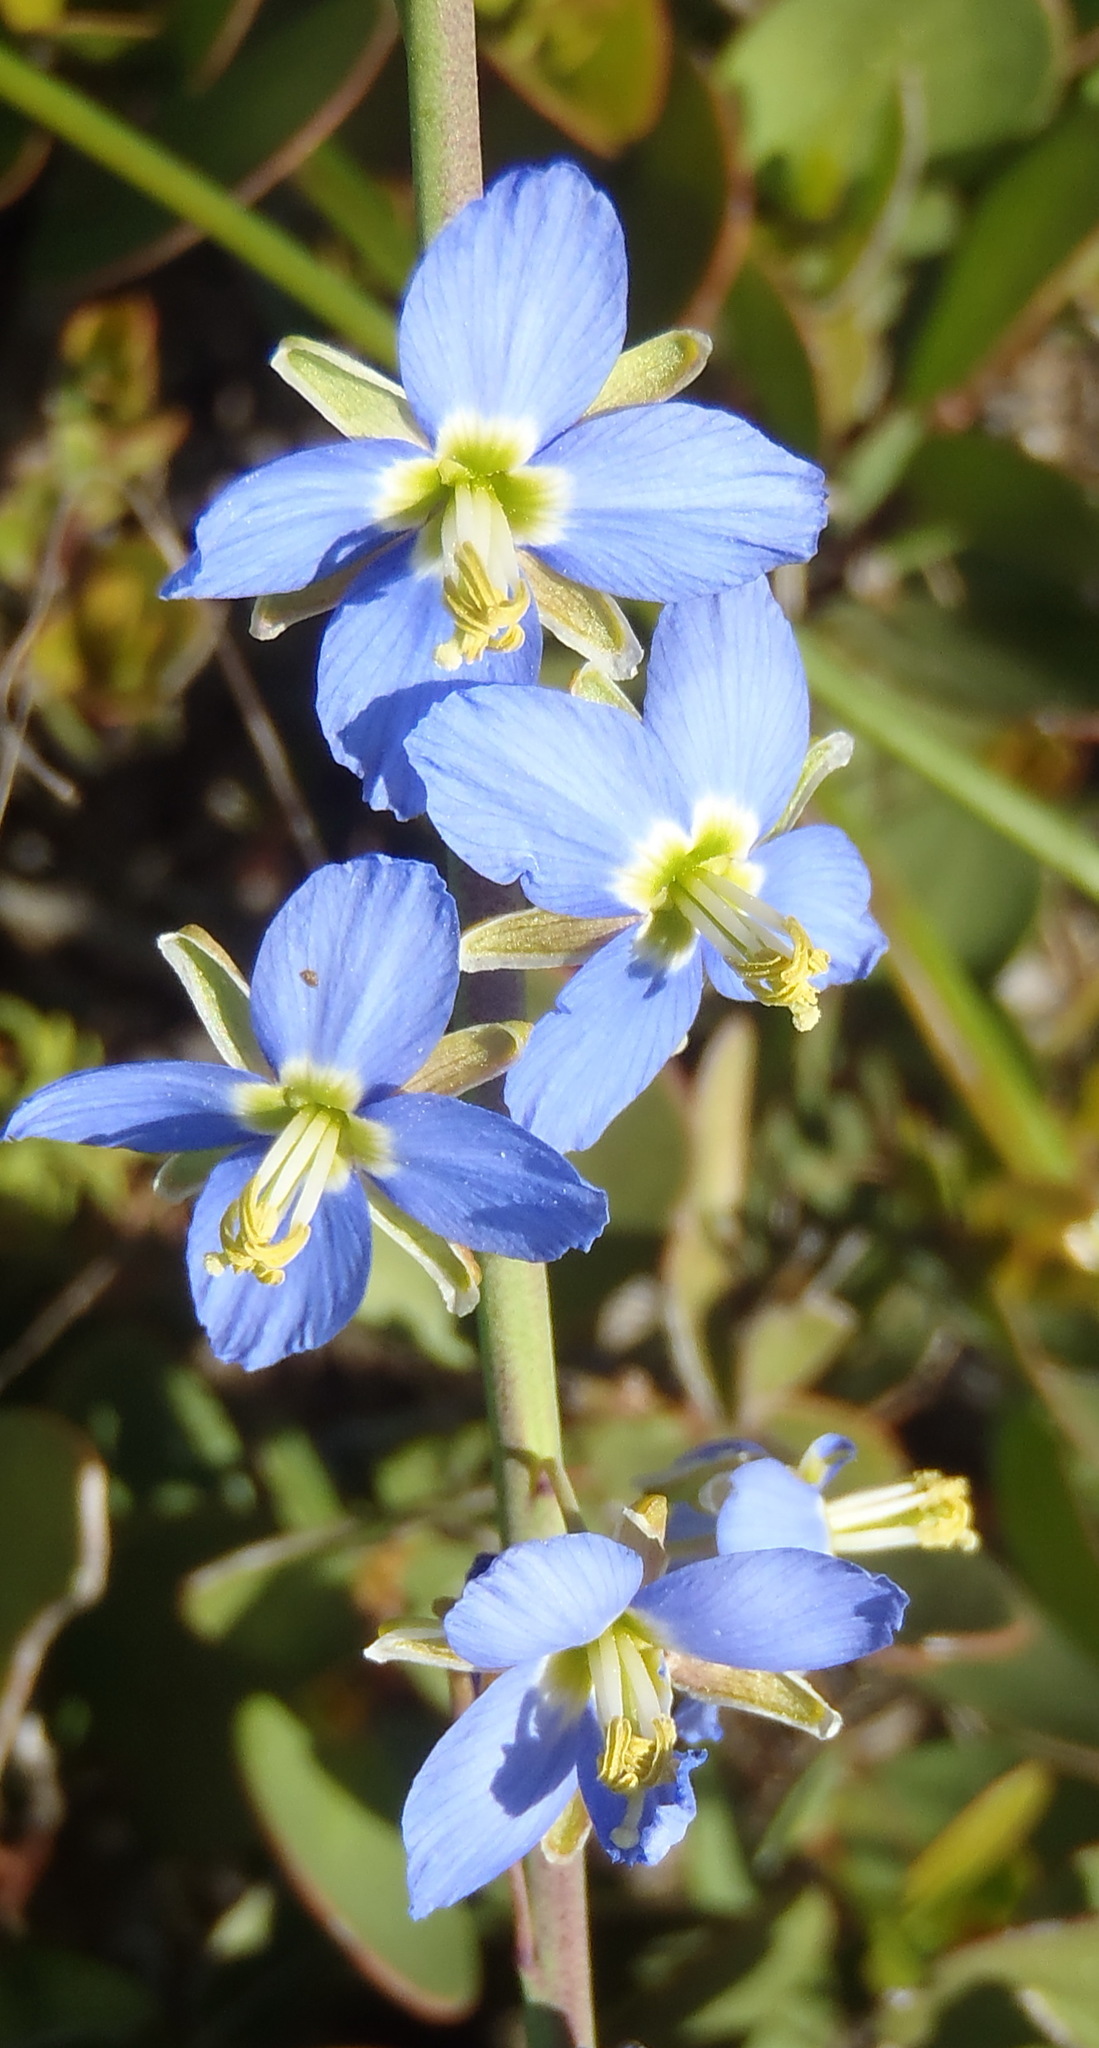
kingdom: Plantae
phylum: Tracheophyta
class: Magnoliopsida
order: Brassicales
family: Brassicaceae
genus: Heliophila
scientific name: Heliophila linearis
